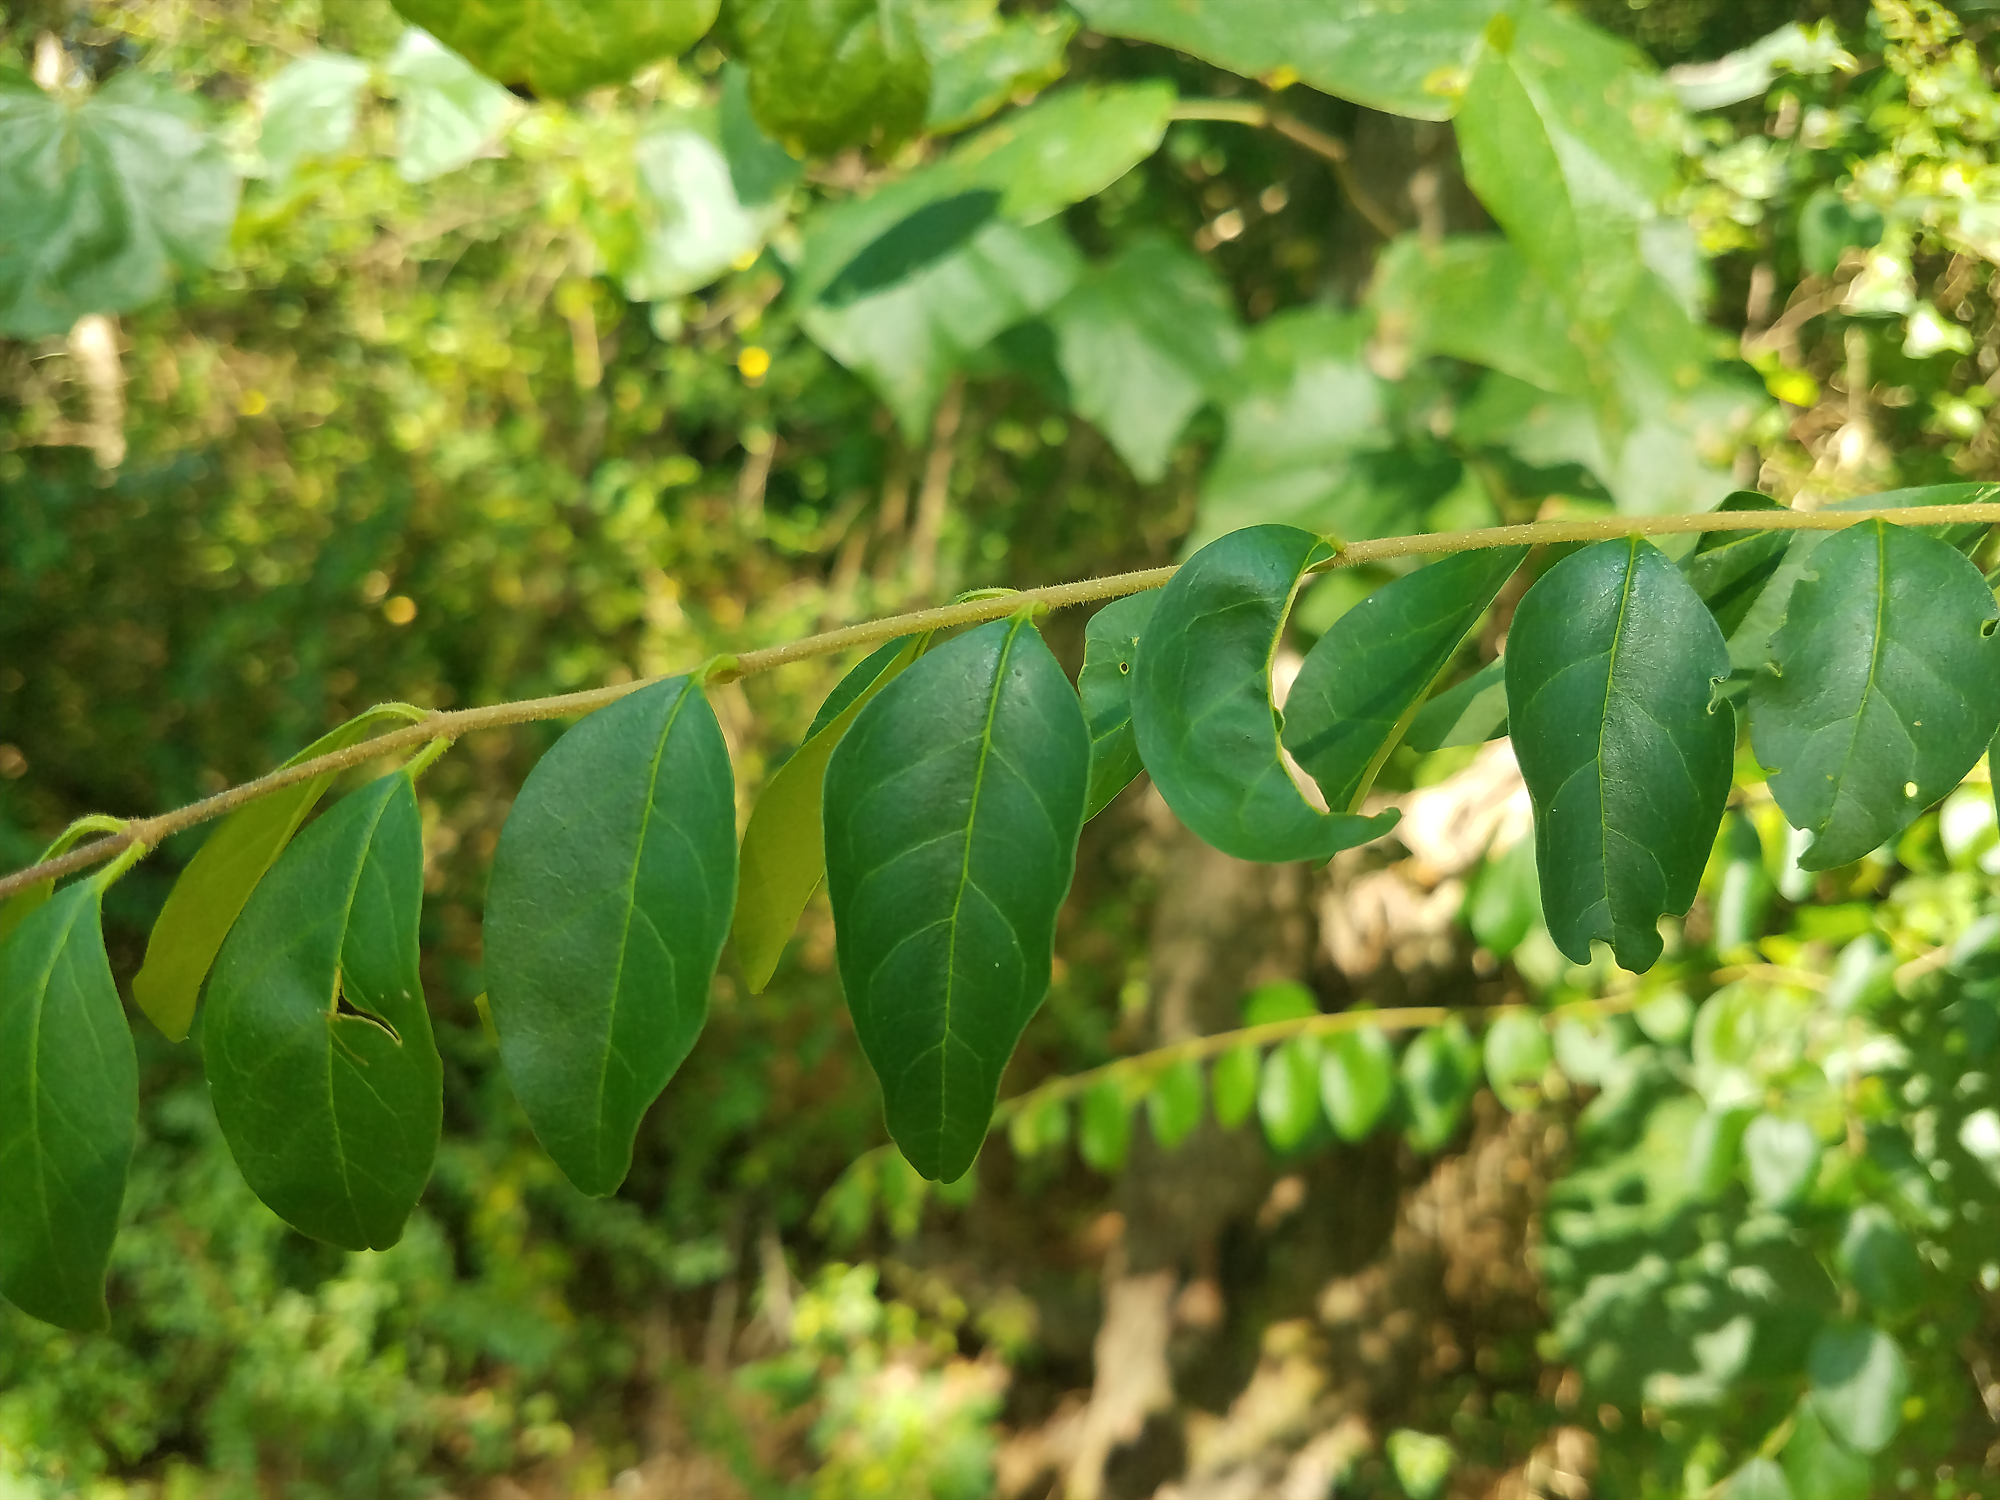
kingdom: Plantae
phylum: Tracheophyta
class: Magnoliopsida
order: Lamiales
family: Oleaceae
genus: Ligustrum
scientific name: Ligustrum sinense
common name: Chinese privet
